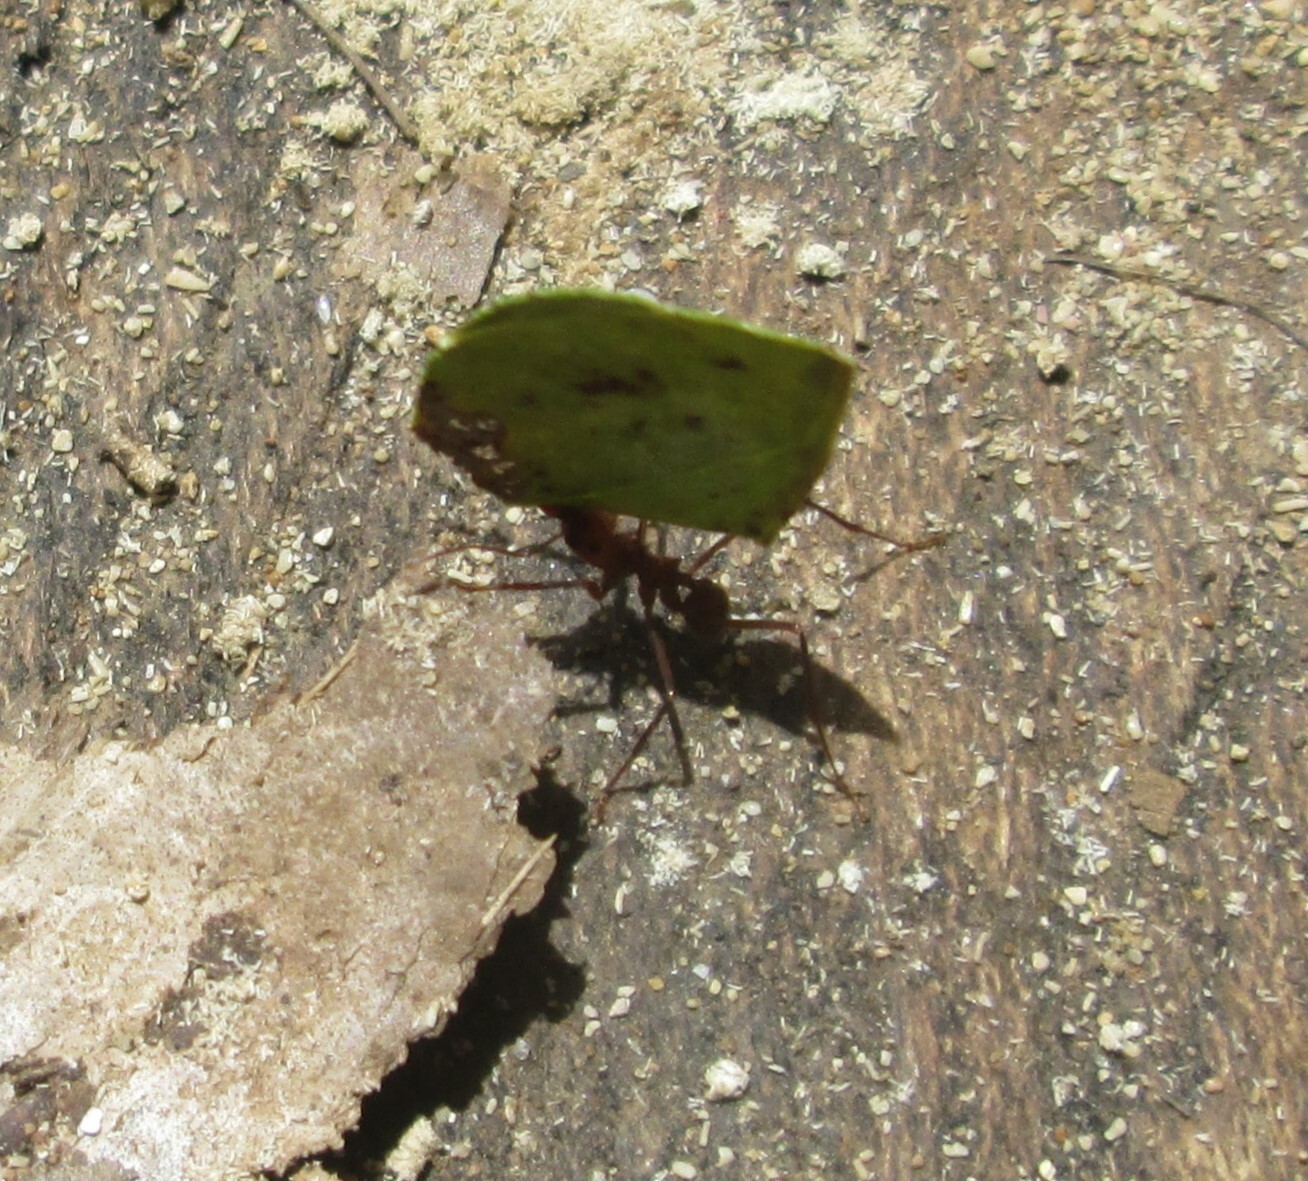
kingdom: Animalia
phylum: Arthropoda
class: Insecta
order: Hymenoptera
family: Formicidae
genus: Atta
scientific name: Atta cephalotes
